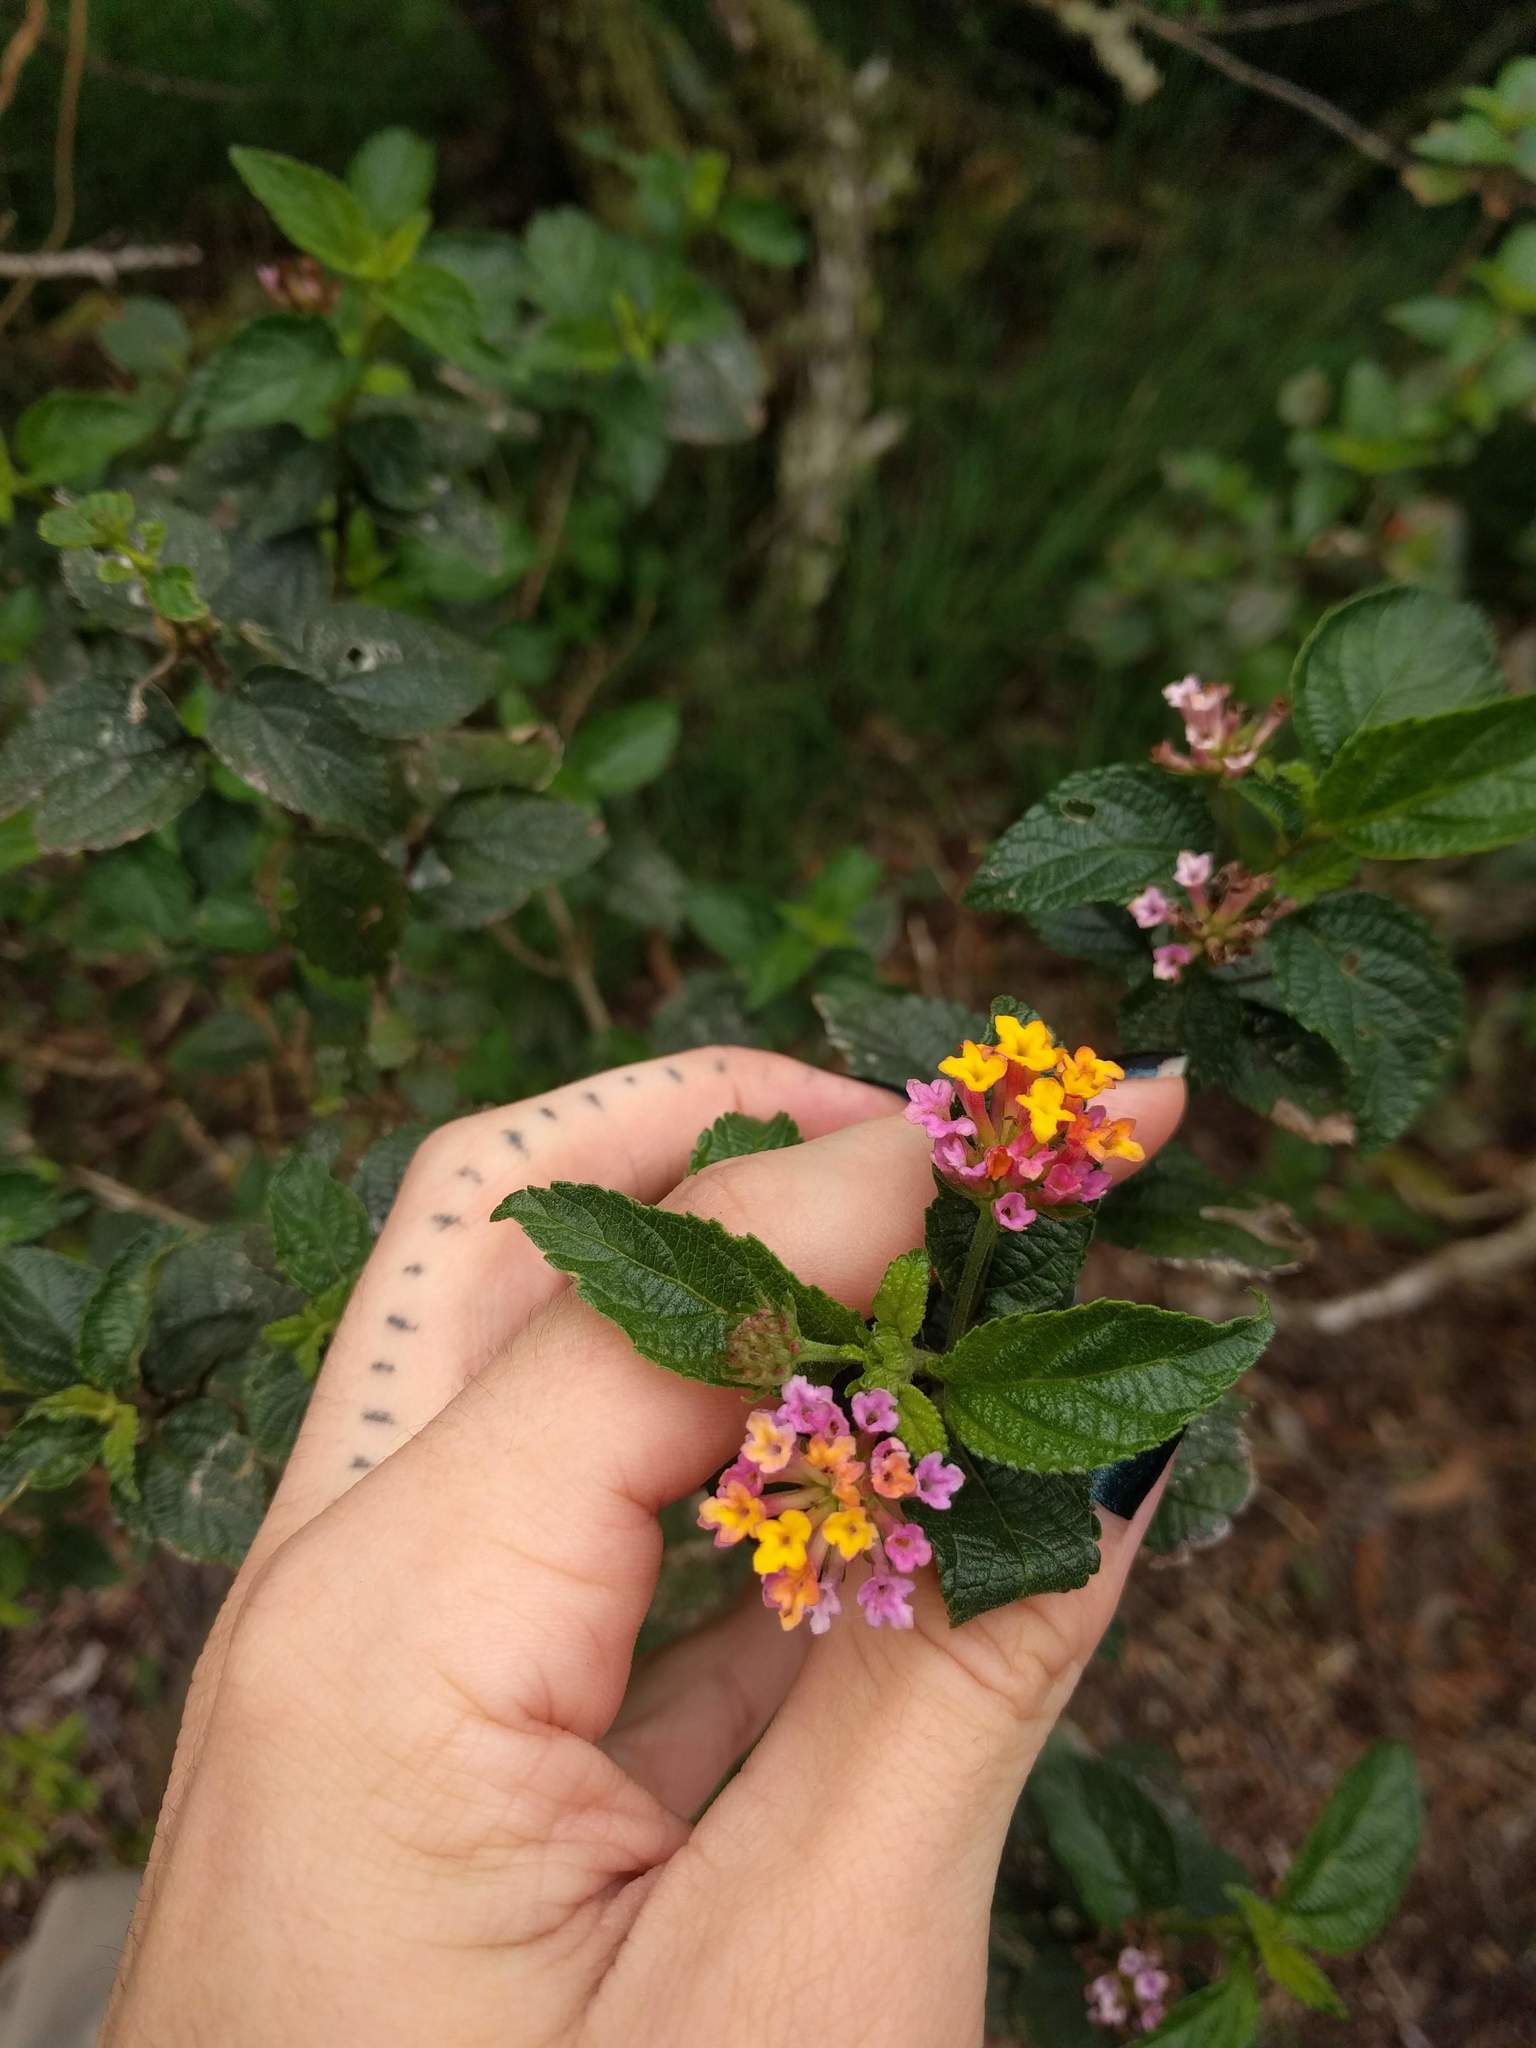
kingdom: Plantae
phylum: Tracheophyta
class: Magnoliopsida
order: Lamiales
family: Verbenaceae
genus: Lantana
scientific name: Lantana camara
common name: Lantana
